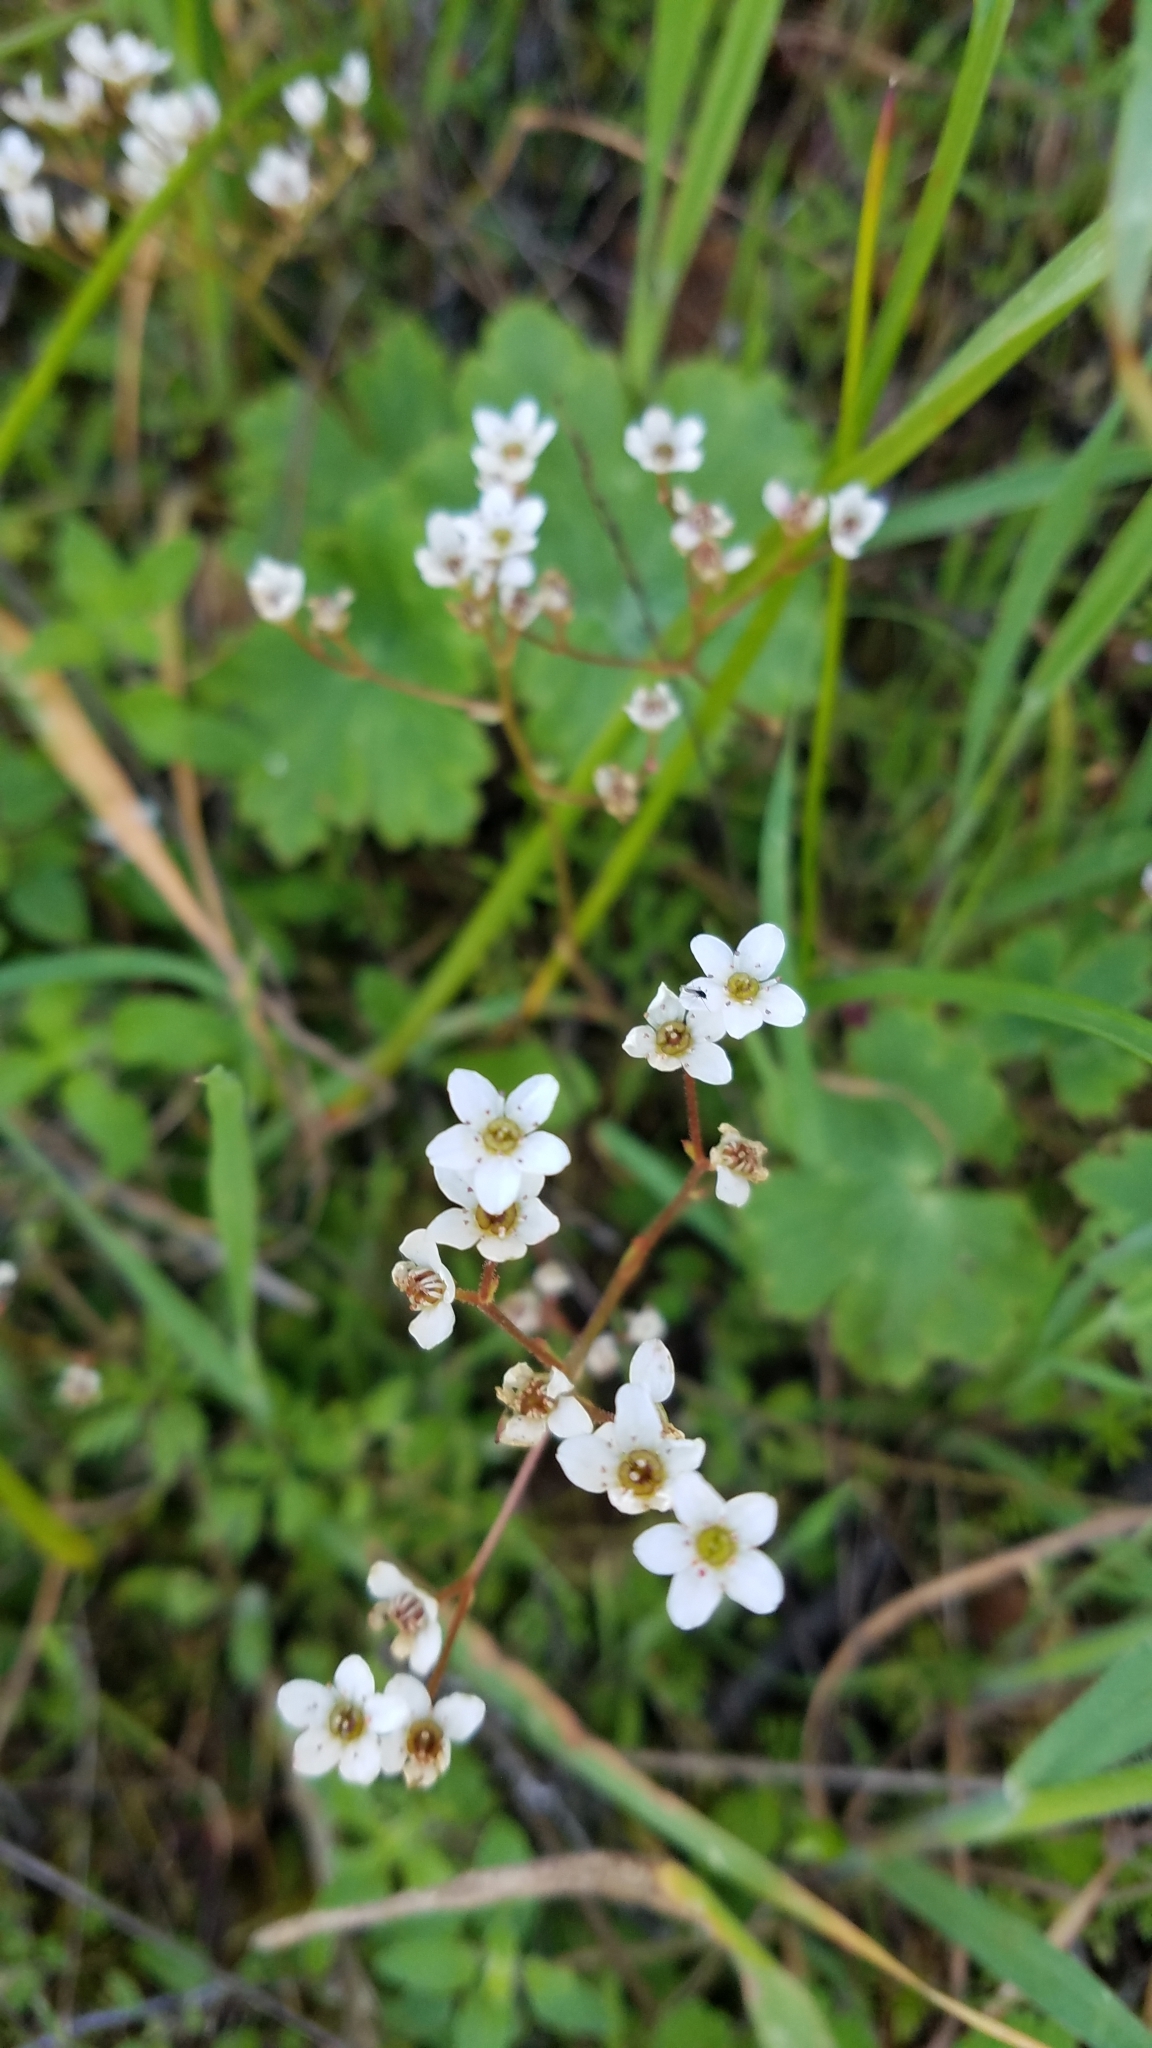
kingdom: Plantae
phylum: Tracheophyta
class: Magnoliopsida
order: Saxifragales
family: Saxifragaceae
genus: Micranthes
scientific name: Micranthes californica
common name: California saxifrage
